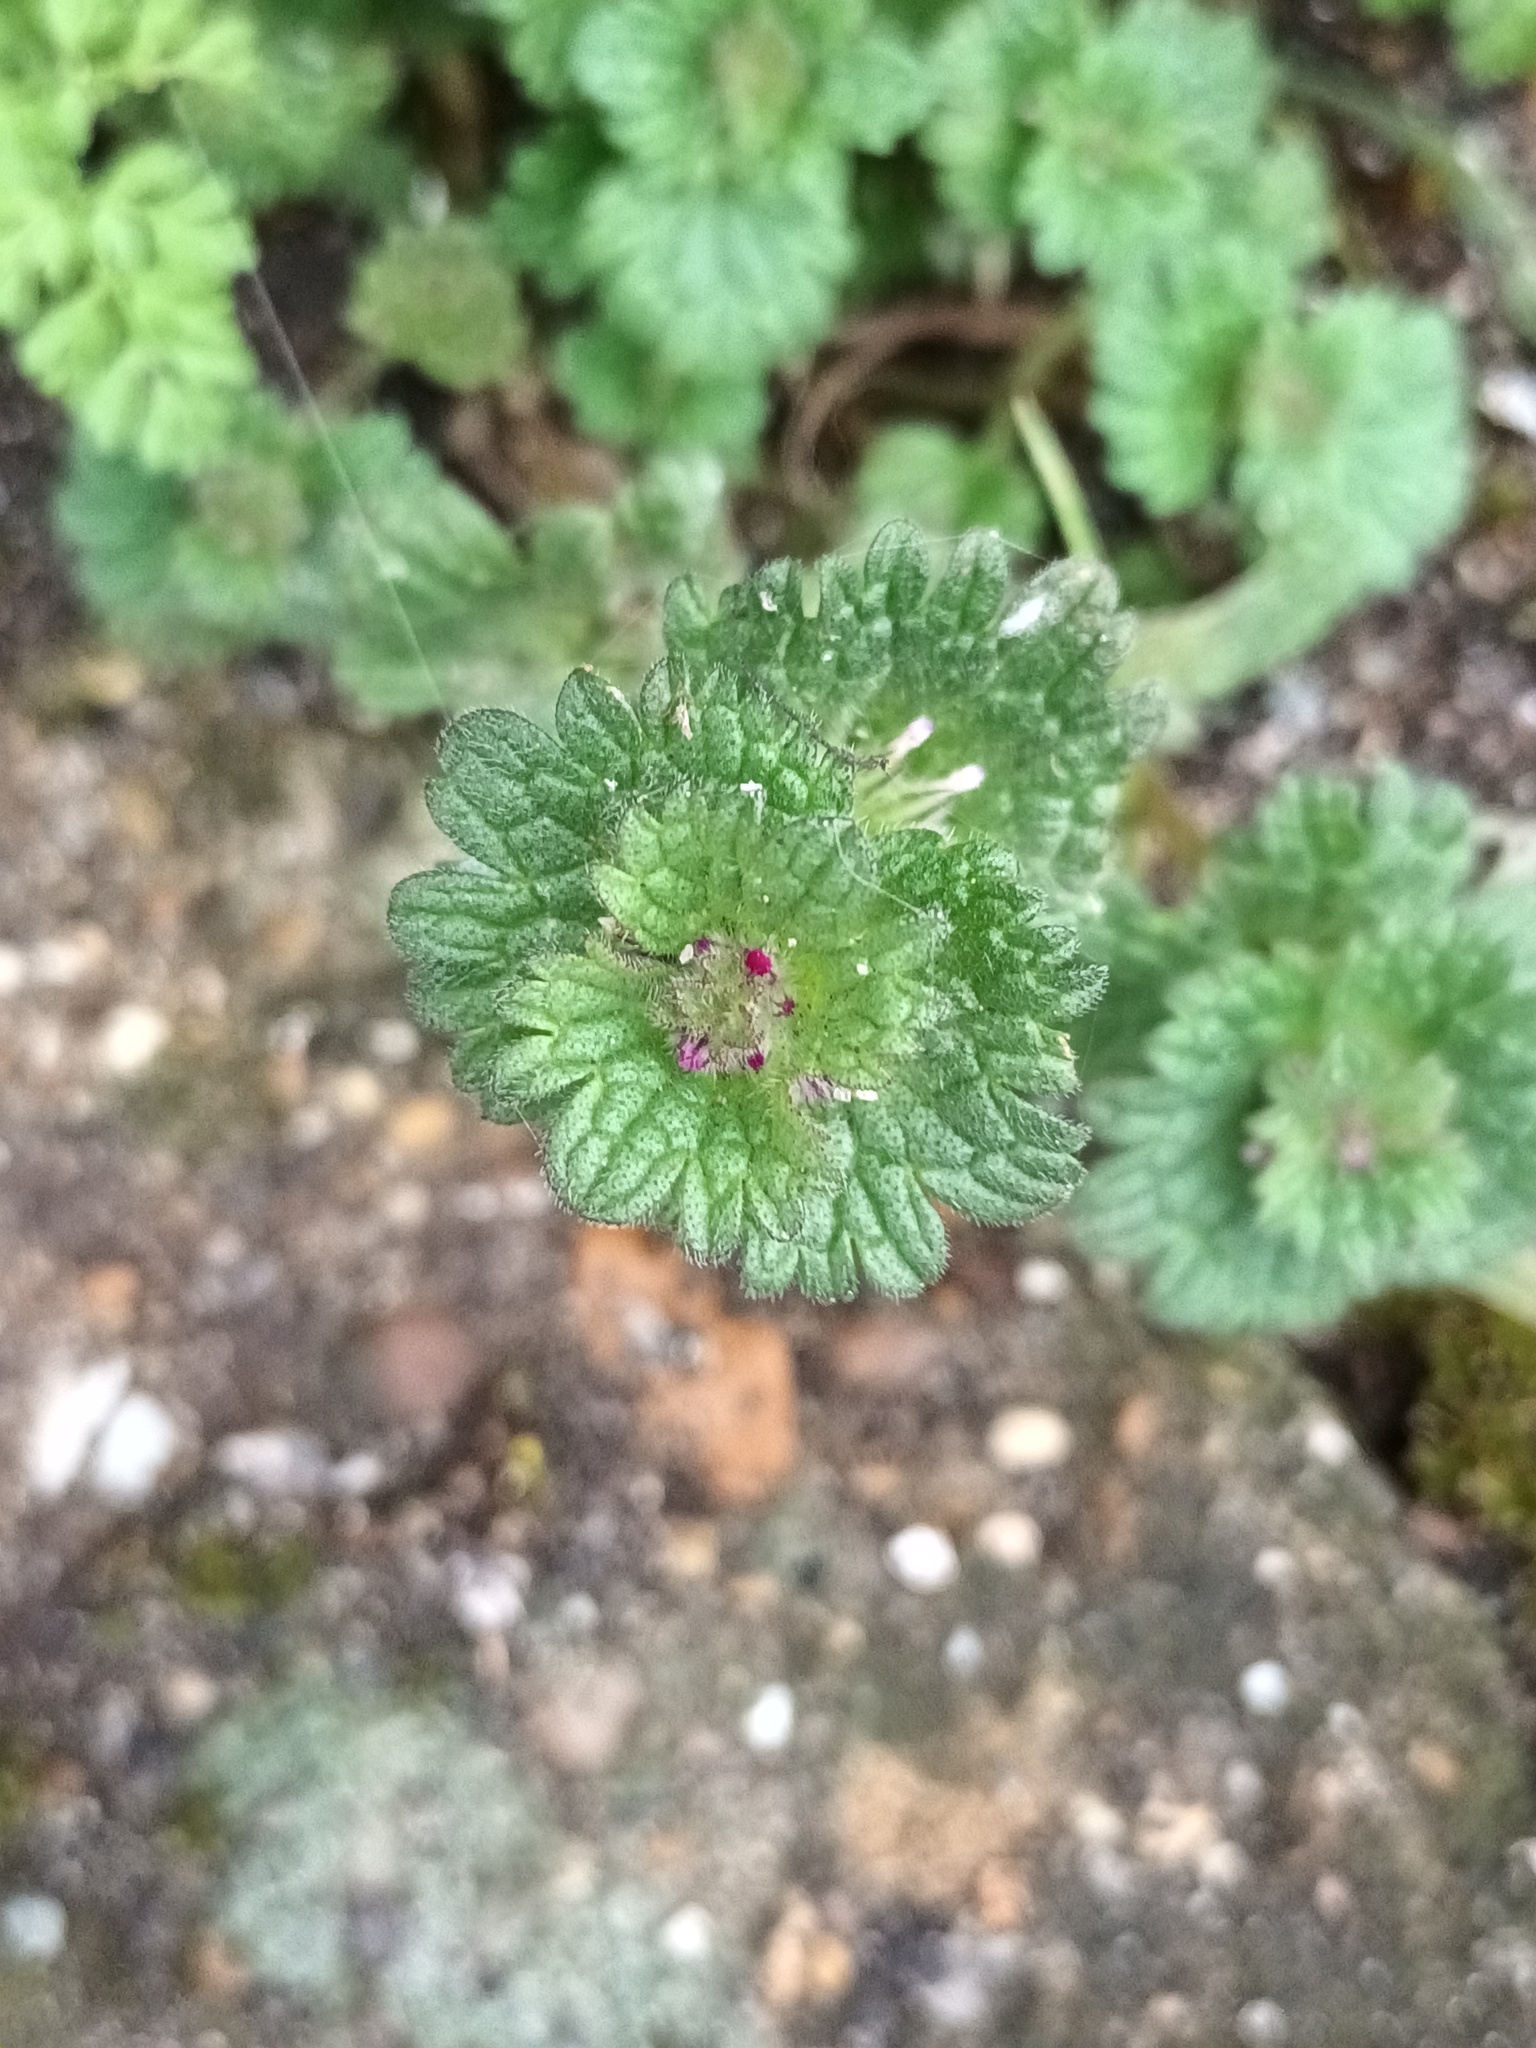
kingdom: Plantae
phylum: Tracheophyta
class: Magnoliopsida
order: Lamiales
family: Lamiaceae
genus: Lamium
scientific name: Lamium amplexicaule
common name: Henbit dead-nettle
